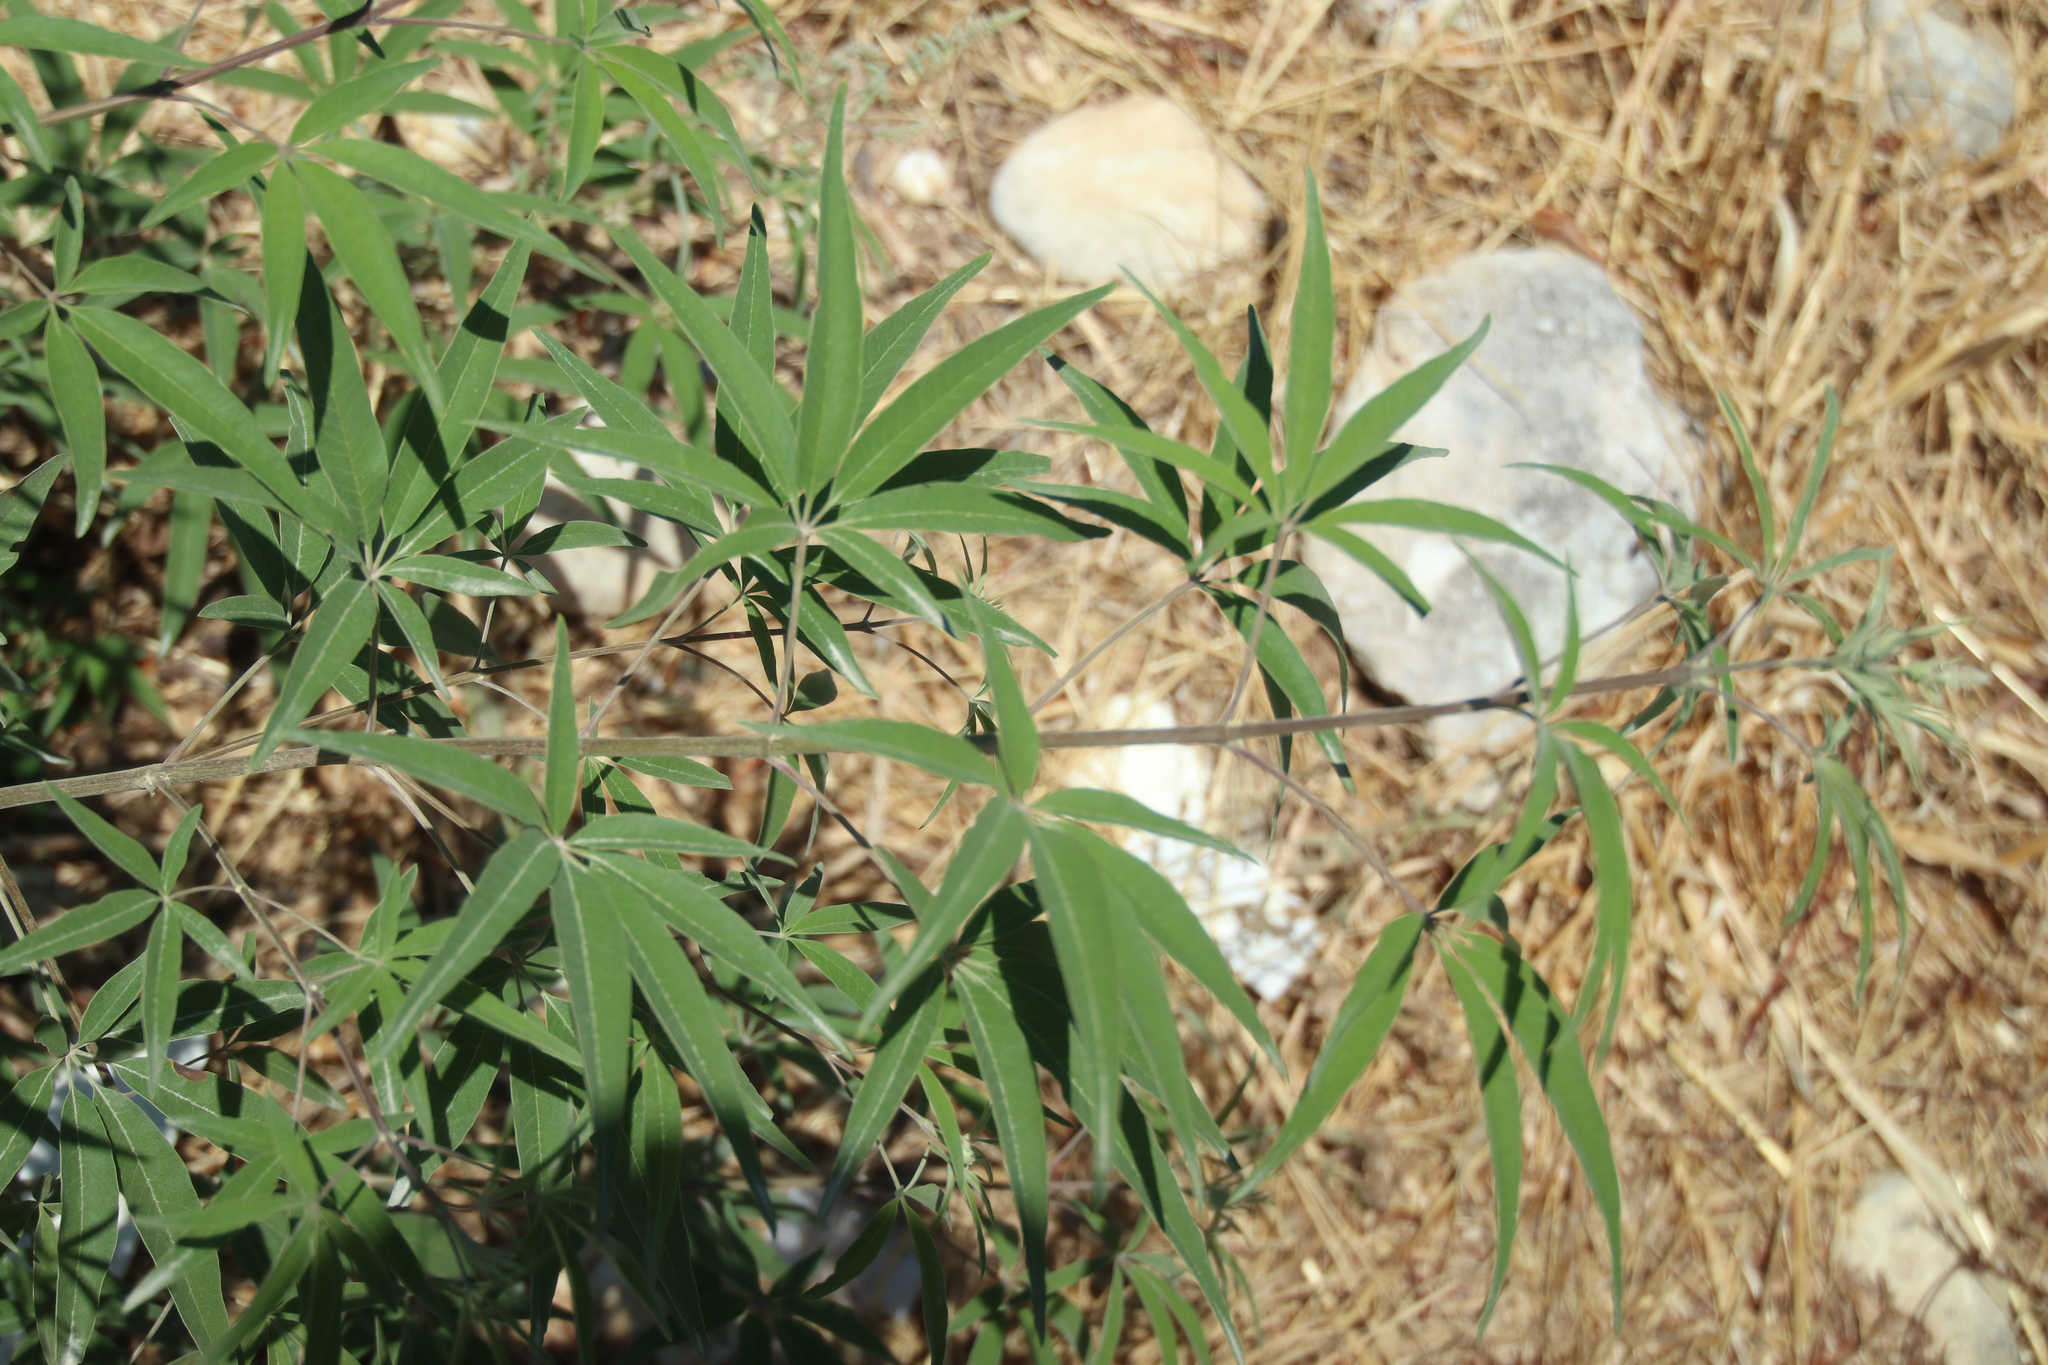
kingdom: Plantae
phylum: Tracheophyta
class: Magnoliopsida
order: Lamiales
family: Lamiaceae
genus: Vitex
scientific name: Vitex agnus-castus
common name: Chasteberry
